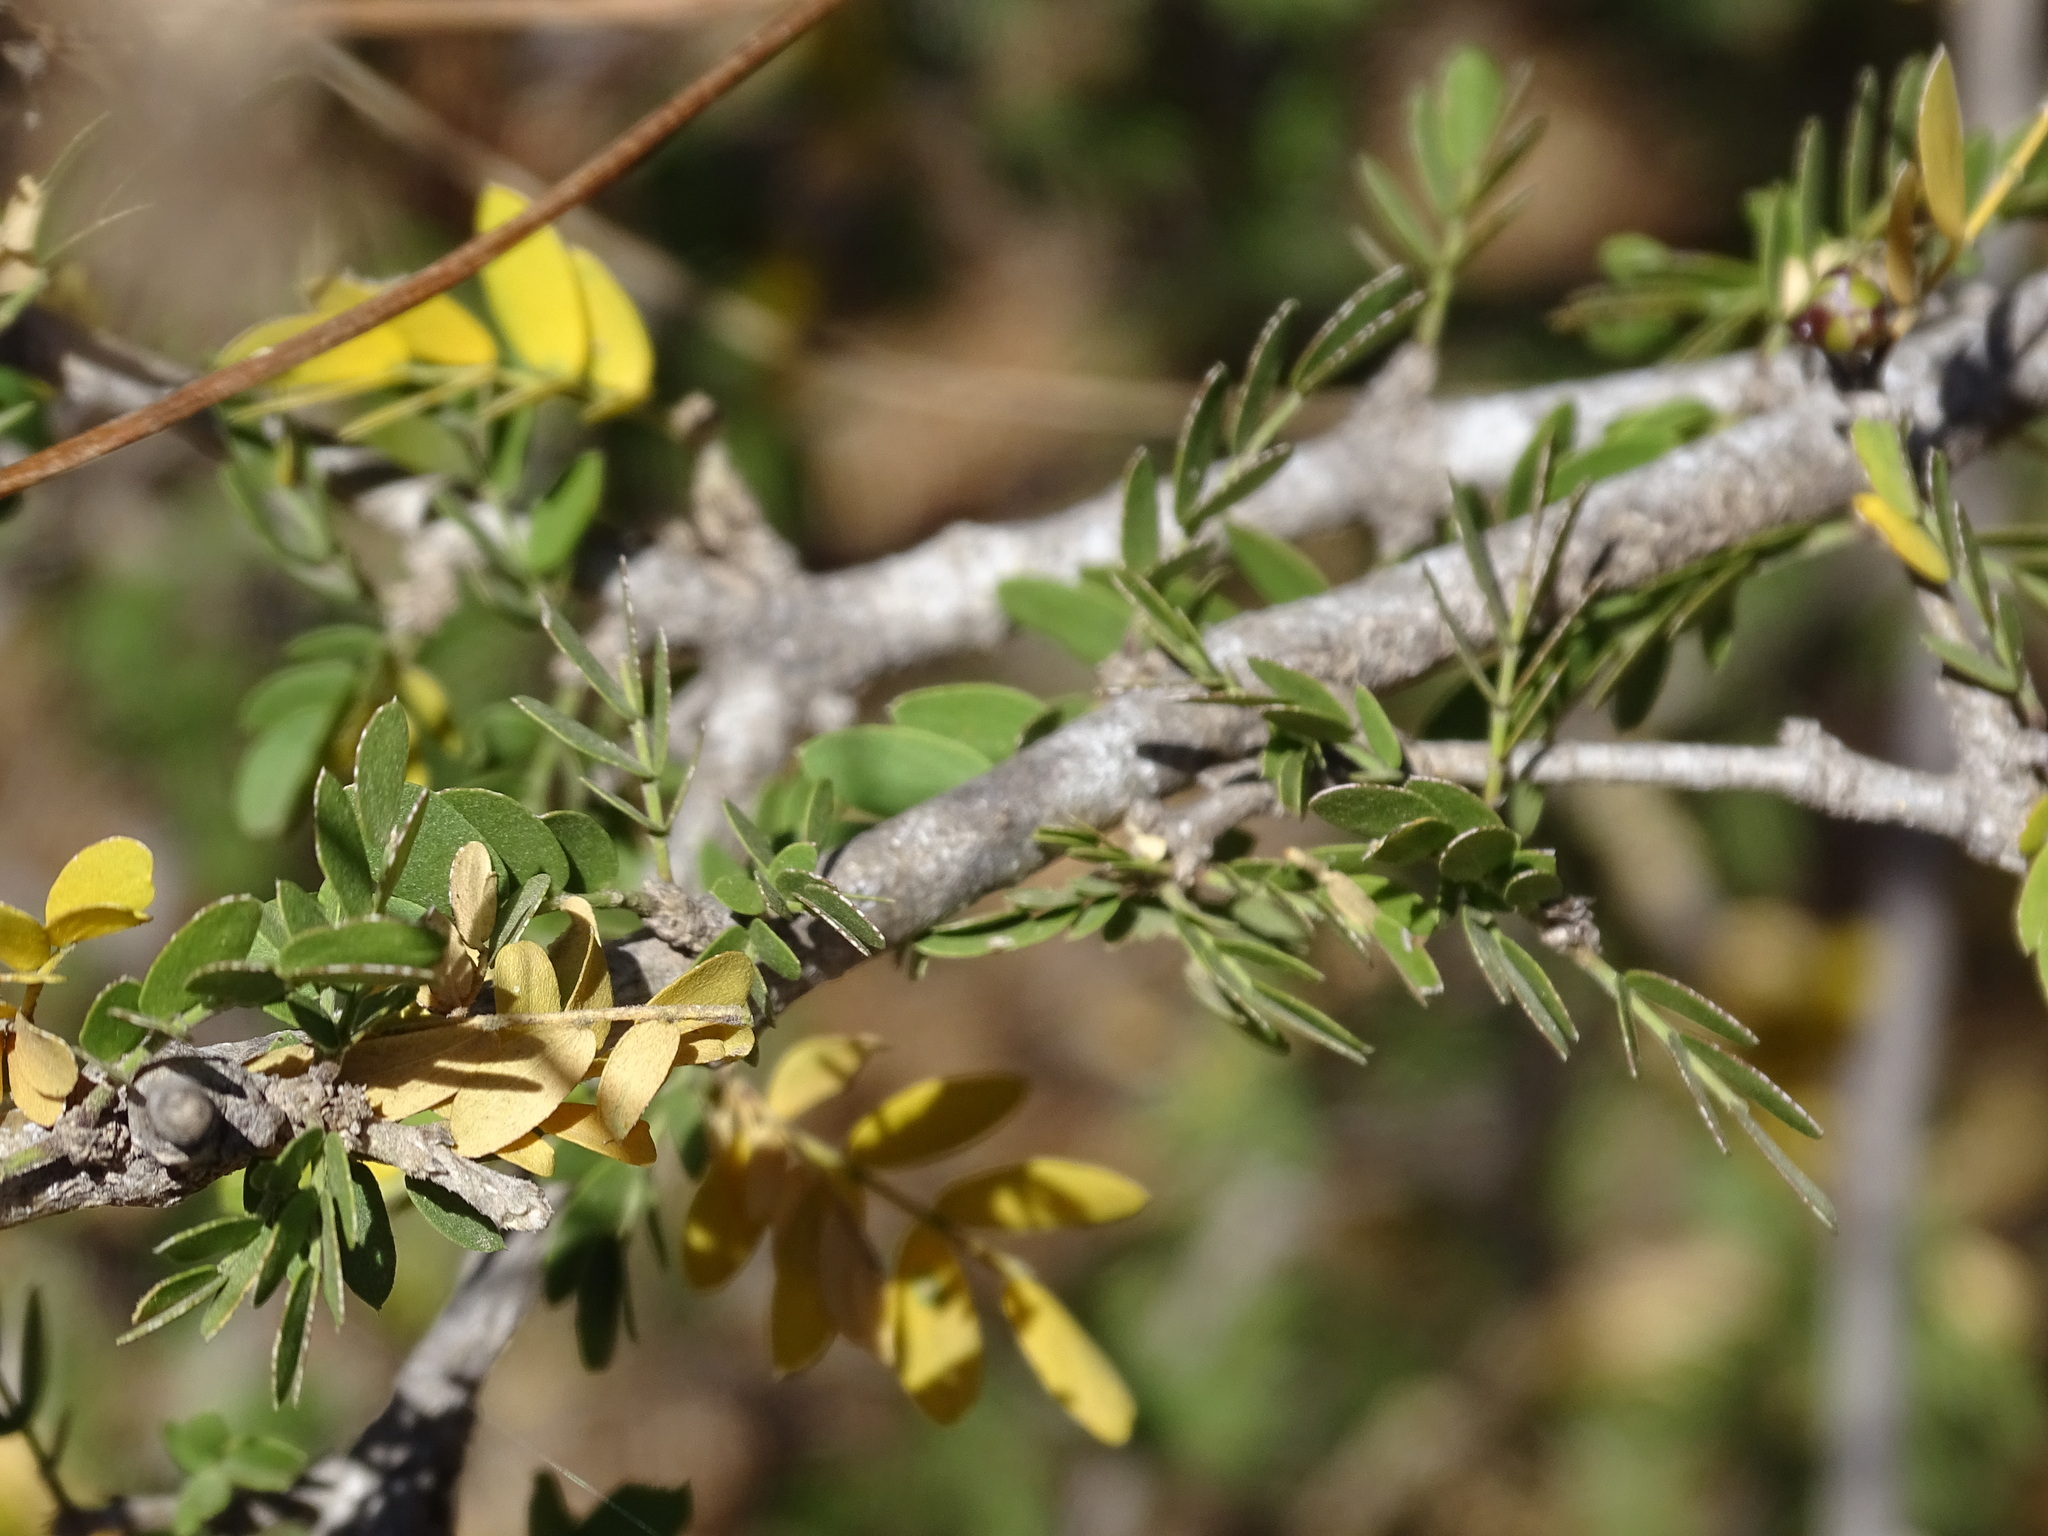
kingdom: Plantae
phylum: Tracheophyta
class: Magnoliopsida
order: Zygophyllales
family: Zygophyllaceae
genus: Guaiacum
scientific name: Guaiacum coulteri
